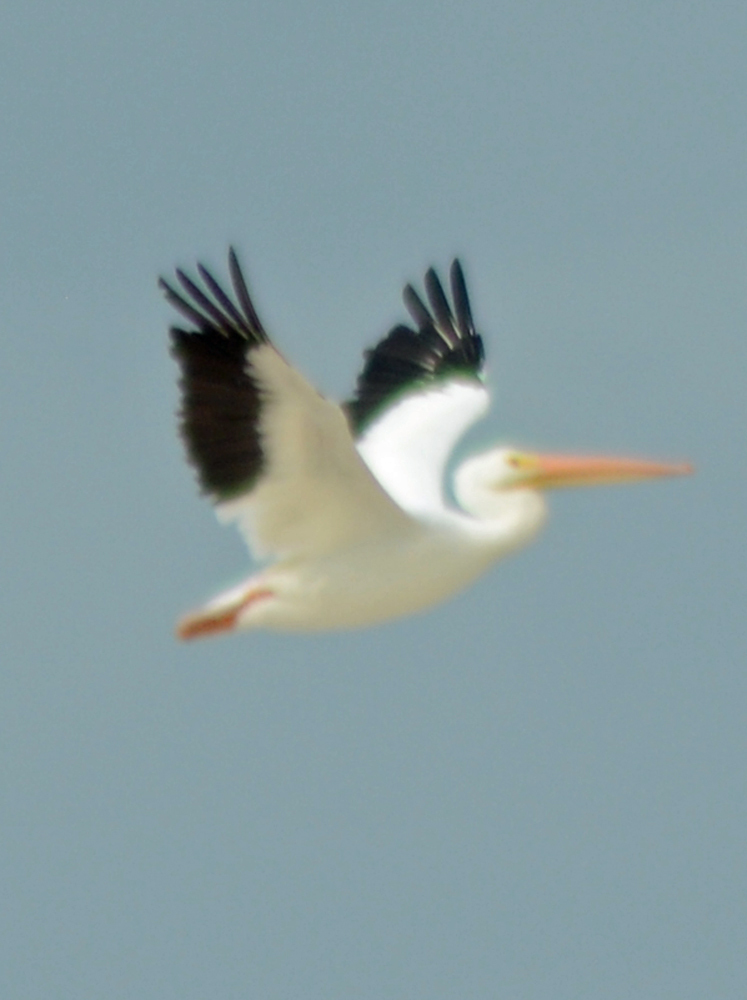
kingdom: Animalia
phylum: Chordata
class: Aves
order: Pelecaniformes
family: Pelecanidae
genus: Pelecanus
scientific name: Pelecanus erythrorhynchos
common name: American white pelican
